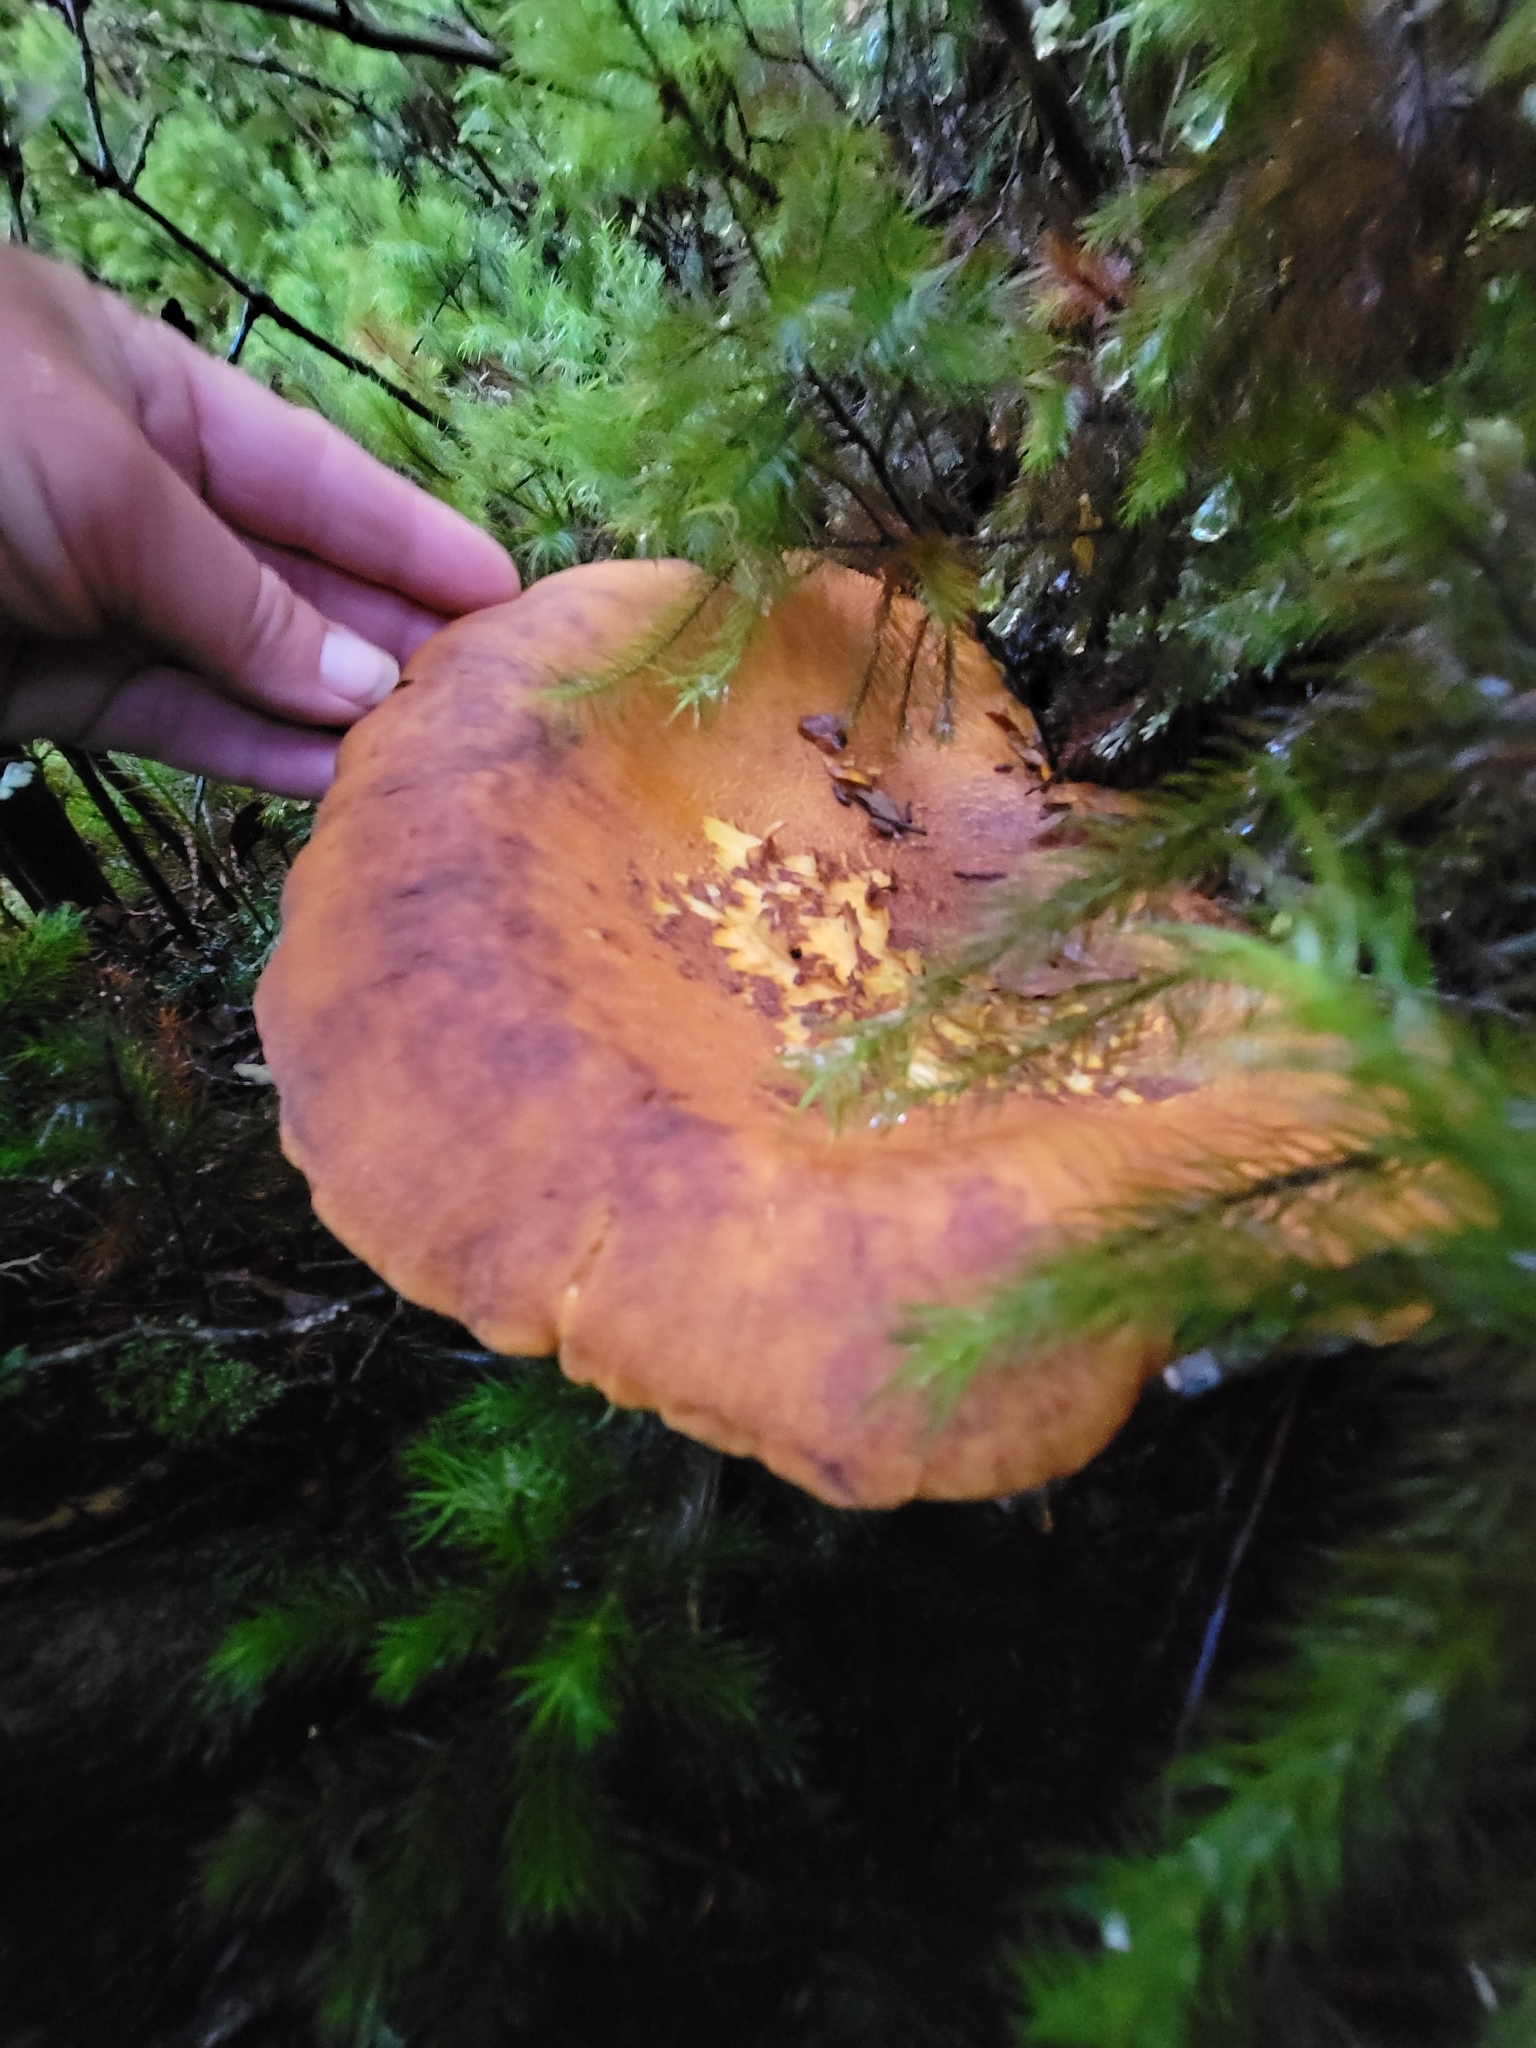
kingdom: Fungi
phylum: Basidiomycota
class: Agaricomycetes
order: Boletales
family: Serpulaceae
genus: Austropaxillus
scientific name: Austropaxillus nothofagi
